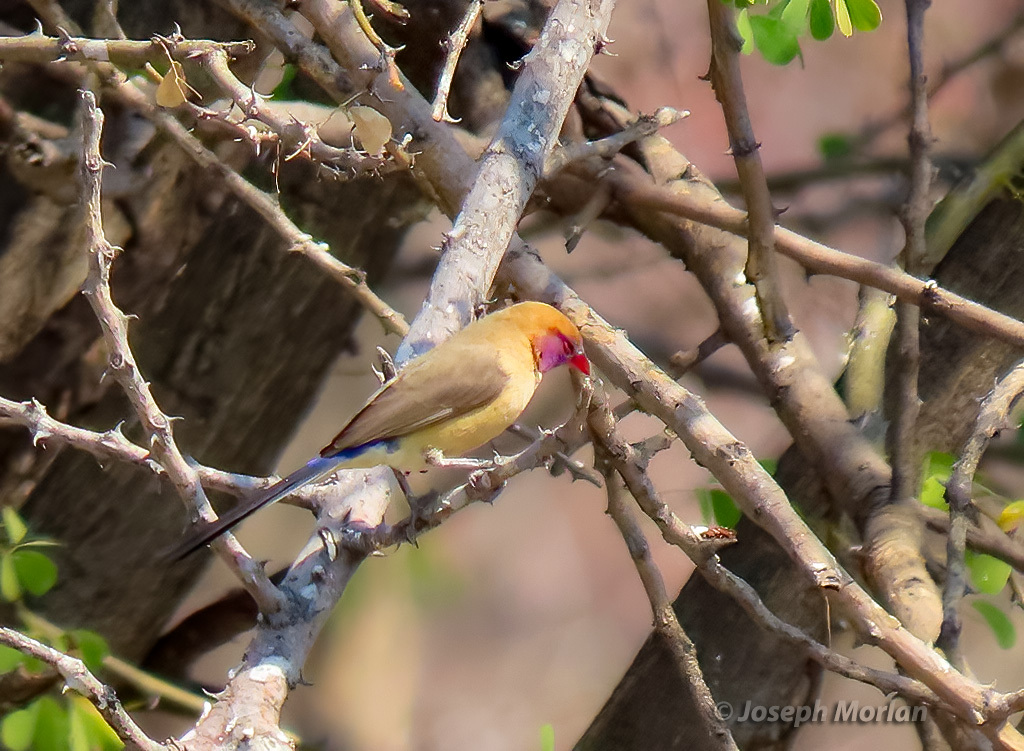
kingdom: Animalia
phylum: Chordata
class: Aves
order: Passeriformes
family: Estrildidae
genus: Uraeginthus
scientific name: Uraeginthus granatinus
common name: Violet-eared waxbill
